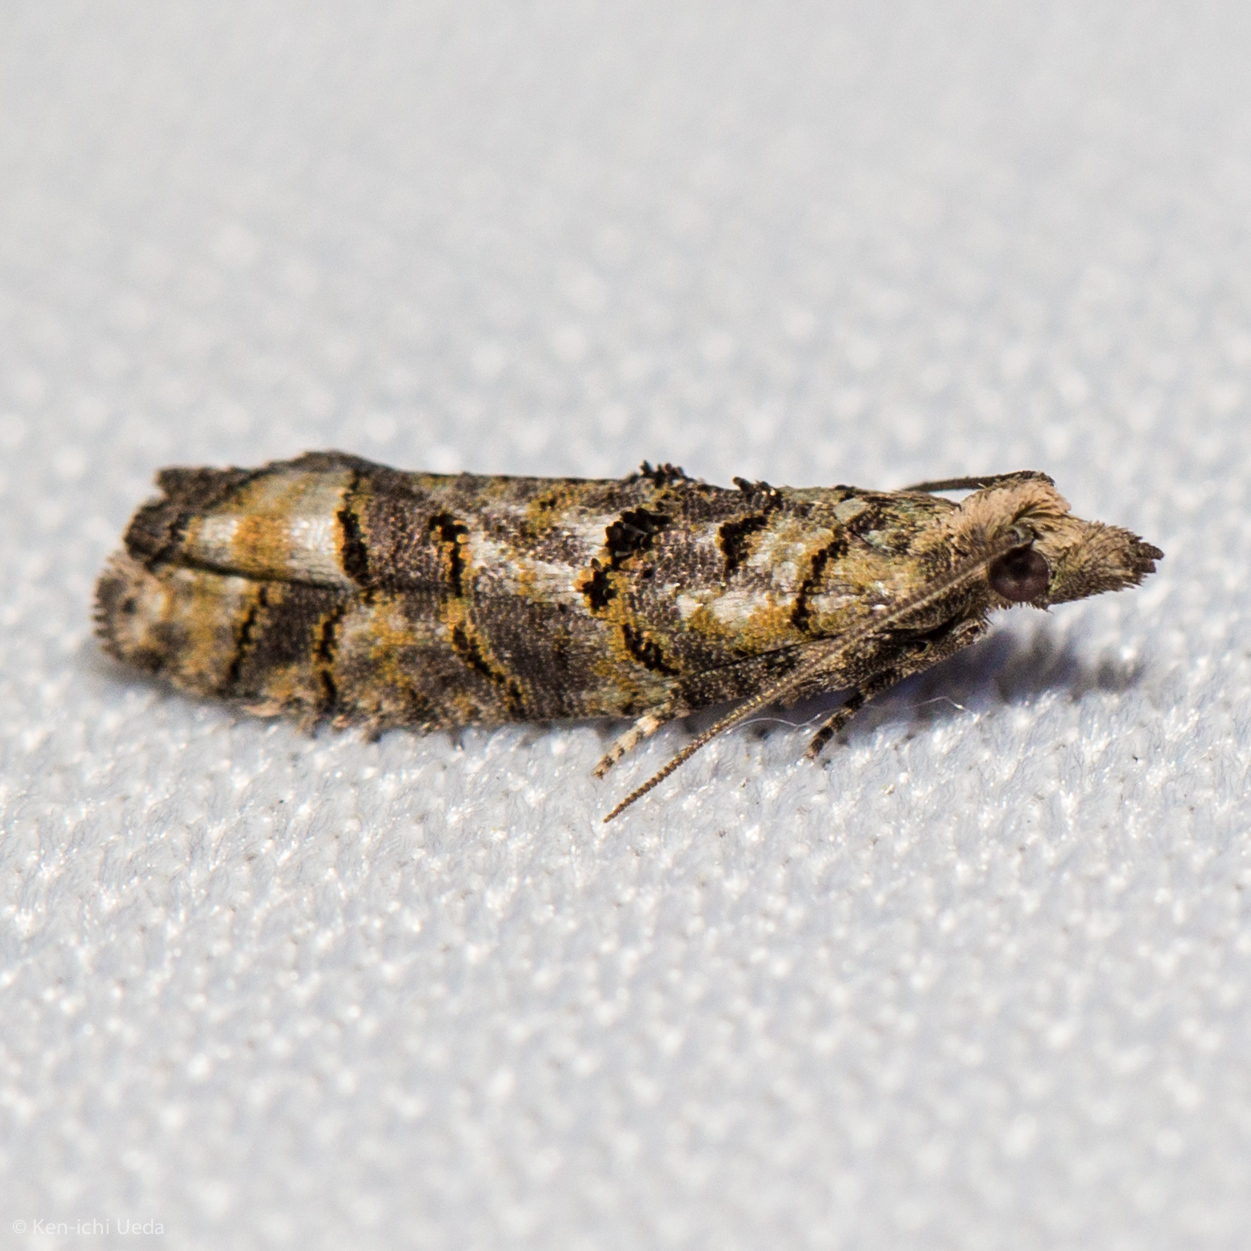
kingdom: Animalia
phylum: Arthropoda
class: Insecta
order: Lepidoptera
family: Tortricidae
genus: Epinotia
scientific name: Epinotia subviridis
